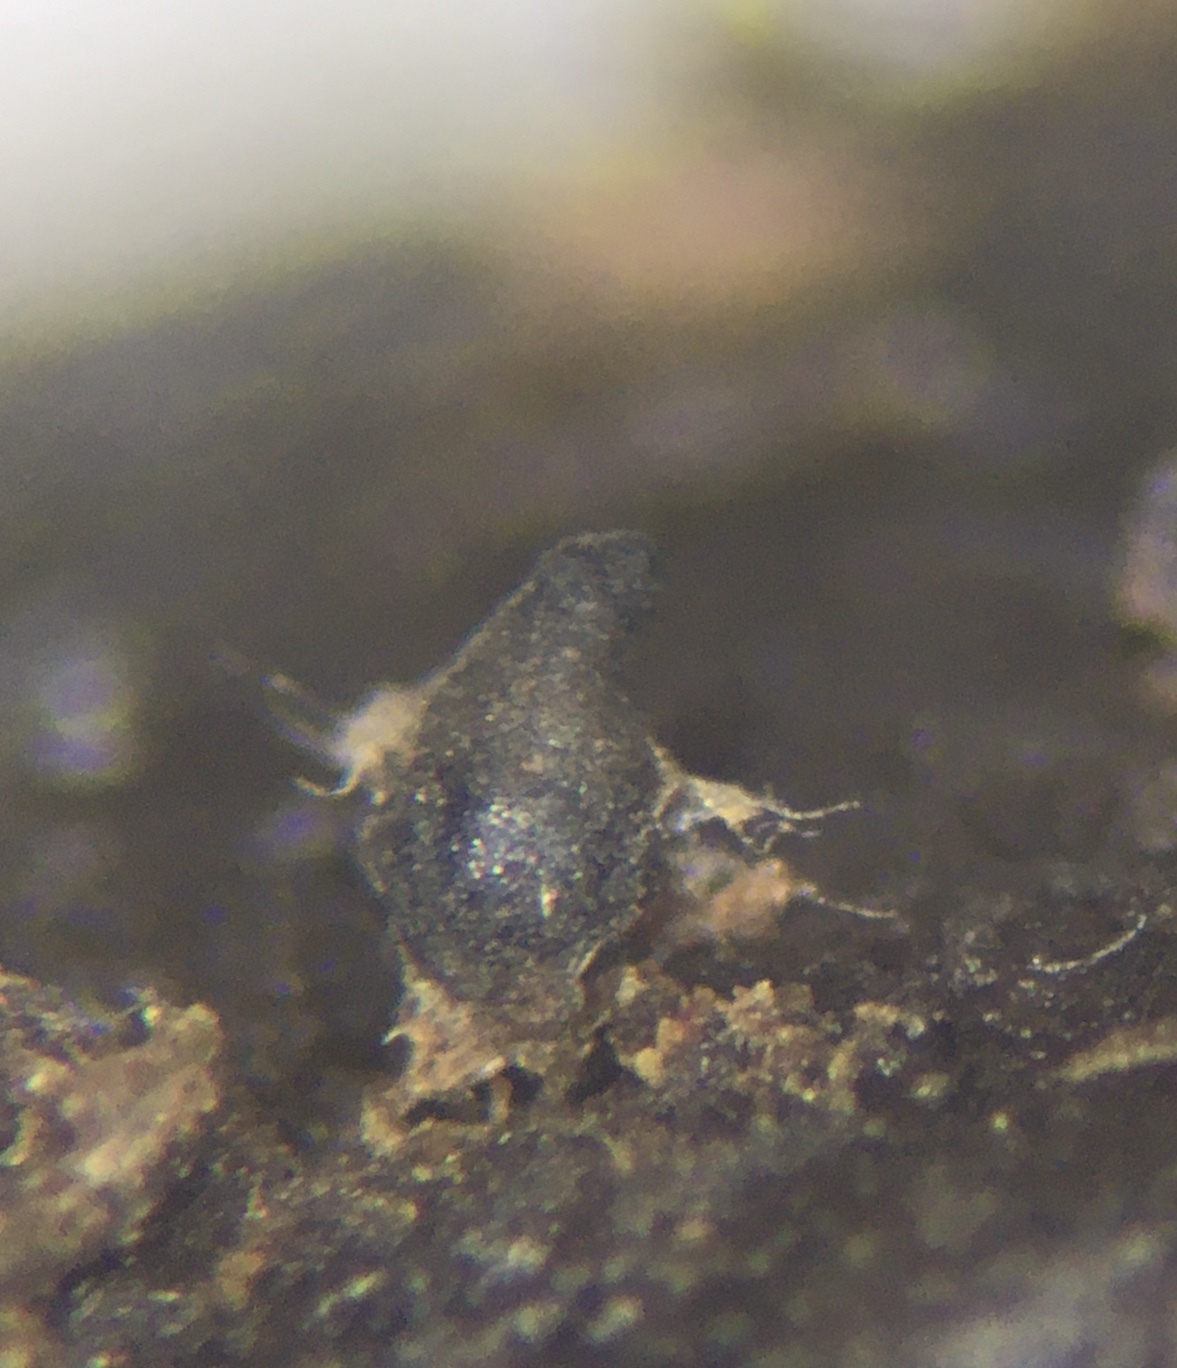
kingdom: Fungi
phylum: Ascomycota
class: Sordariomycetes
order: Sordariales
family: Lasiosphaeriaceae
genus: Schizothecium
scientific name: Schizothecium miniglutinans
